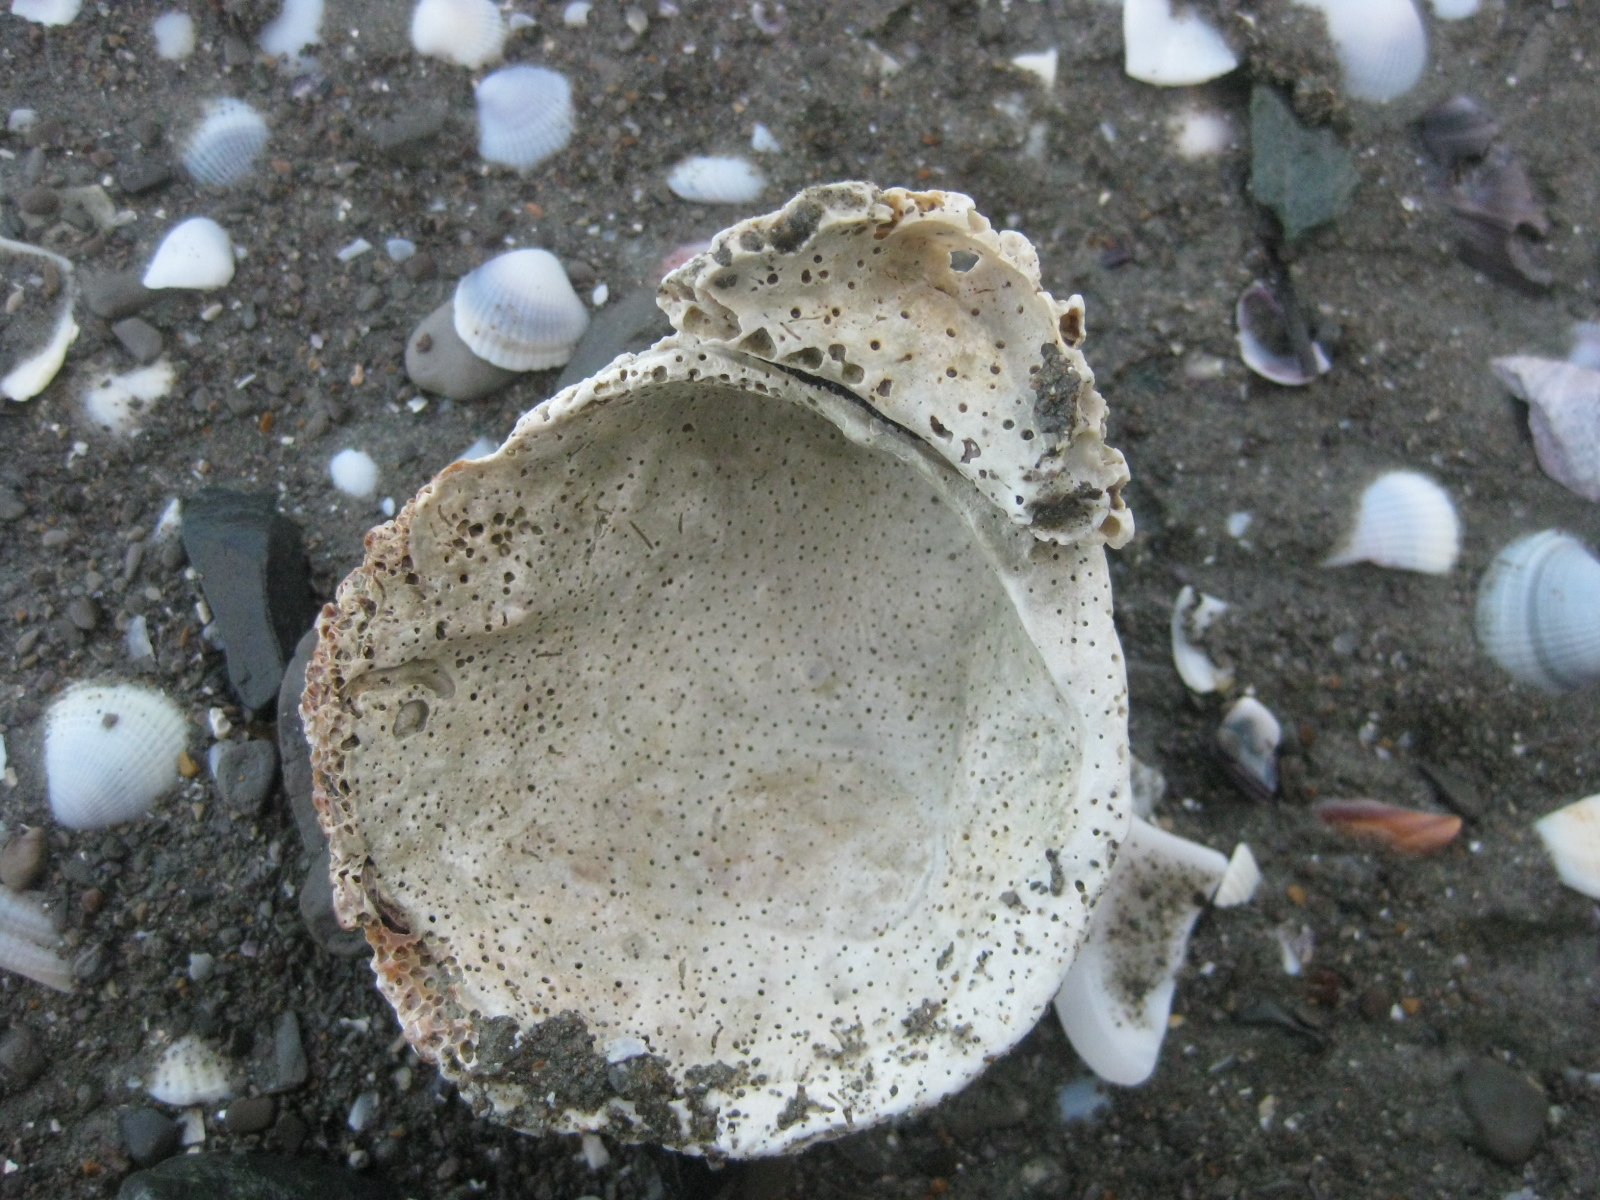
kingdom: Animalia
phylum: Mollusca
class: Bivalvia
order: Arcida
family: Glycymerididae
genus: Tucetona
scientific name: Tucetona laticostata
